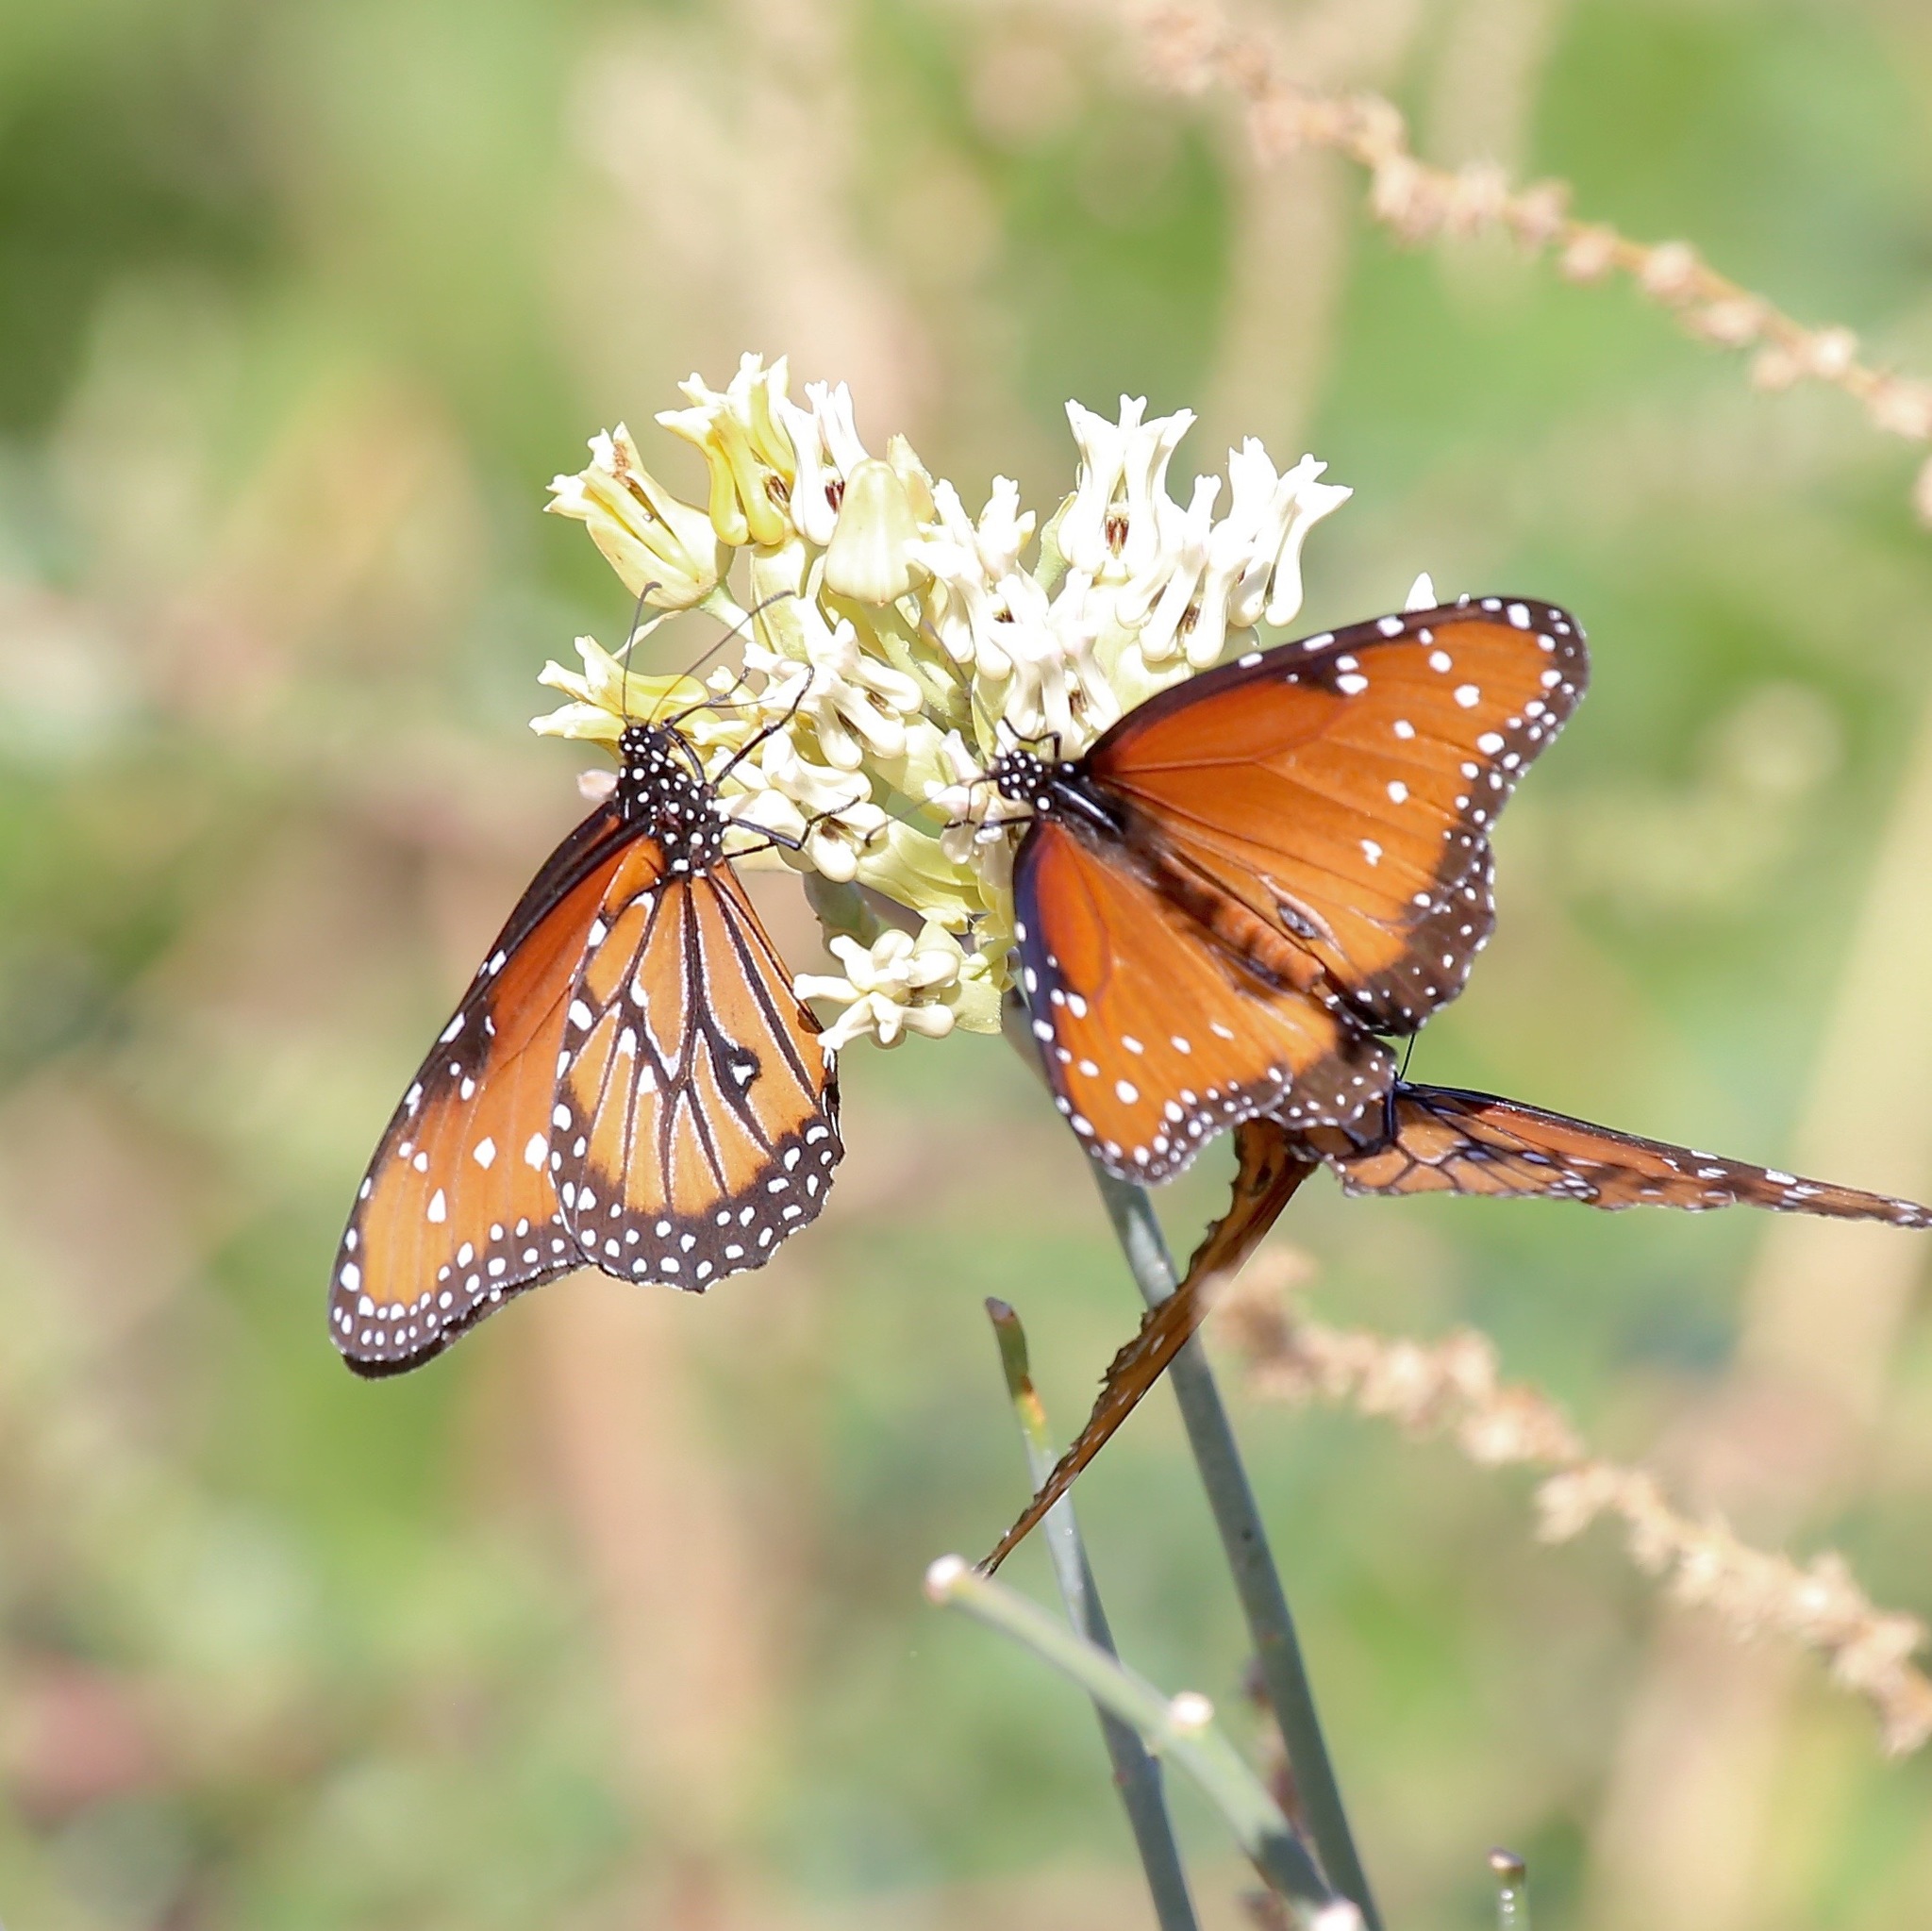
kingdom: Animalia
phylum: Arthropoda
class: Insecta
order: Lepidoptera
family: Nymphalidae
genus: Danaus
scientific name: Danaus gilippus
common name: Queen
